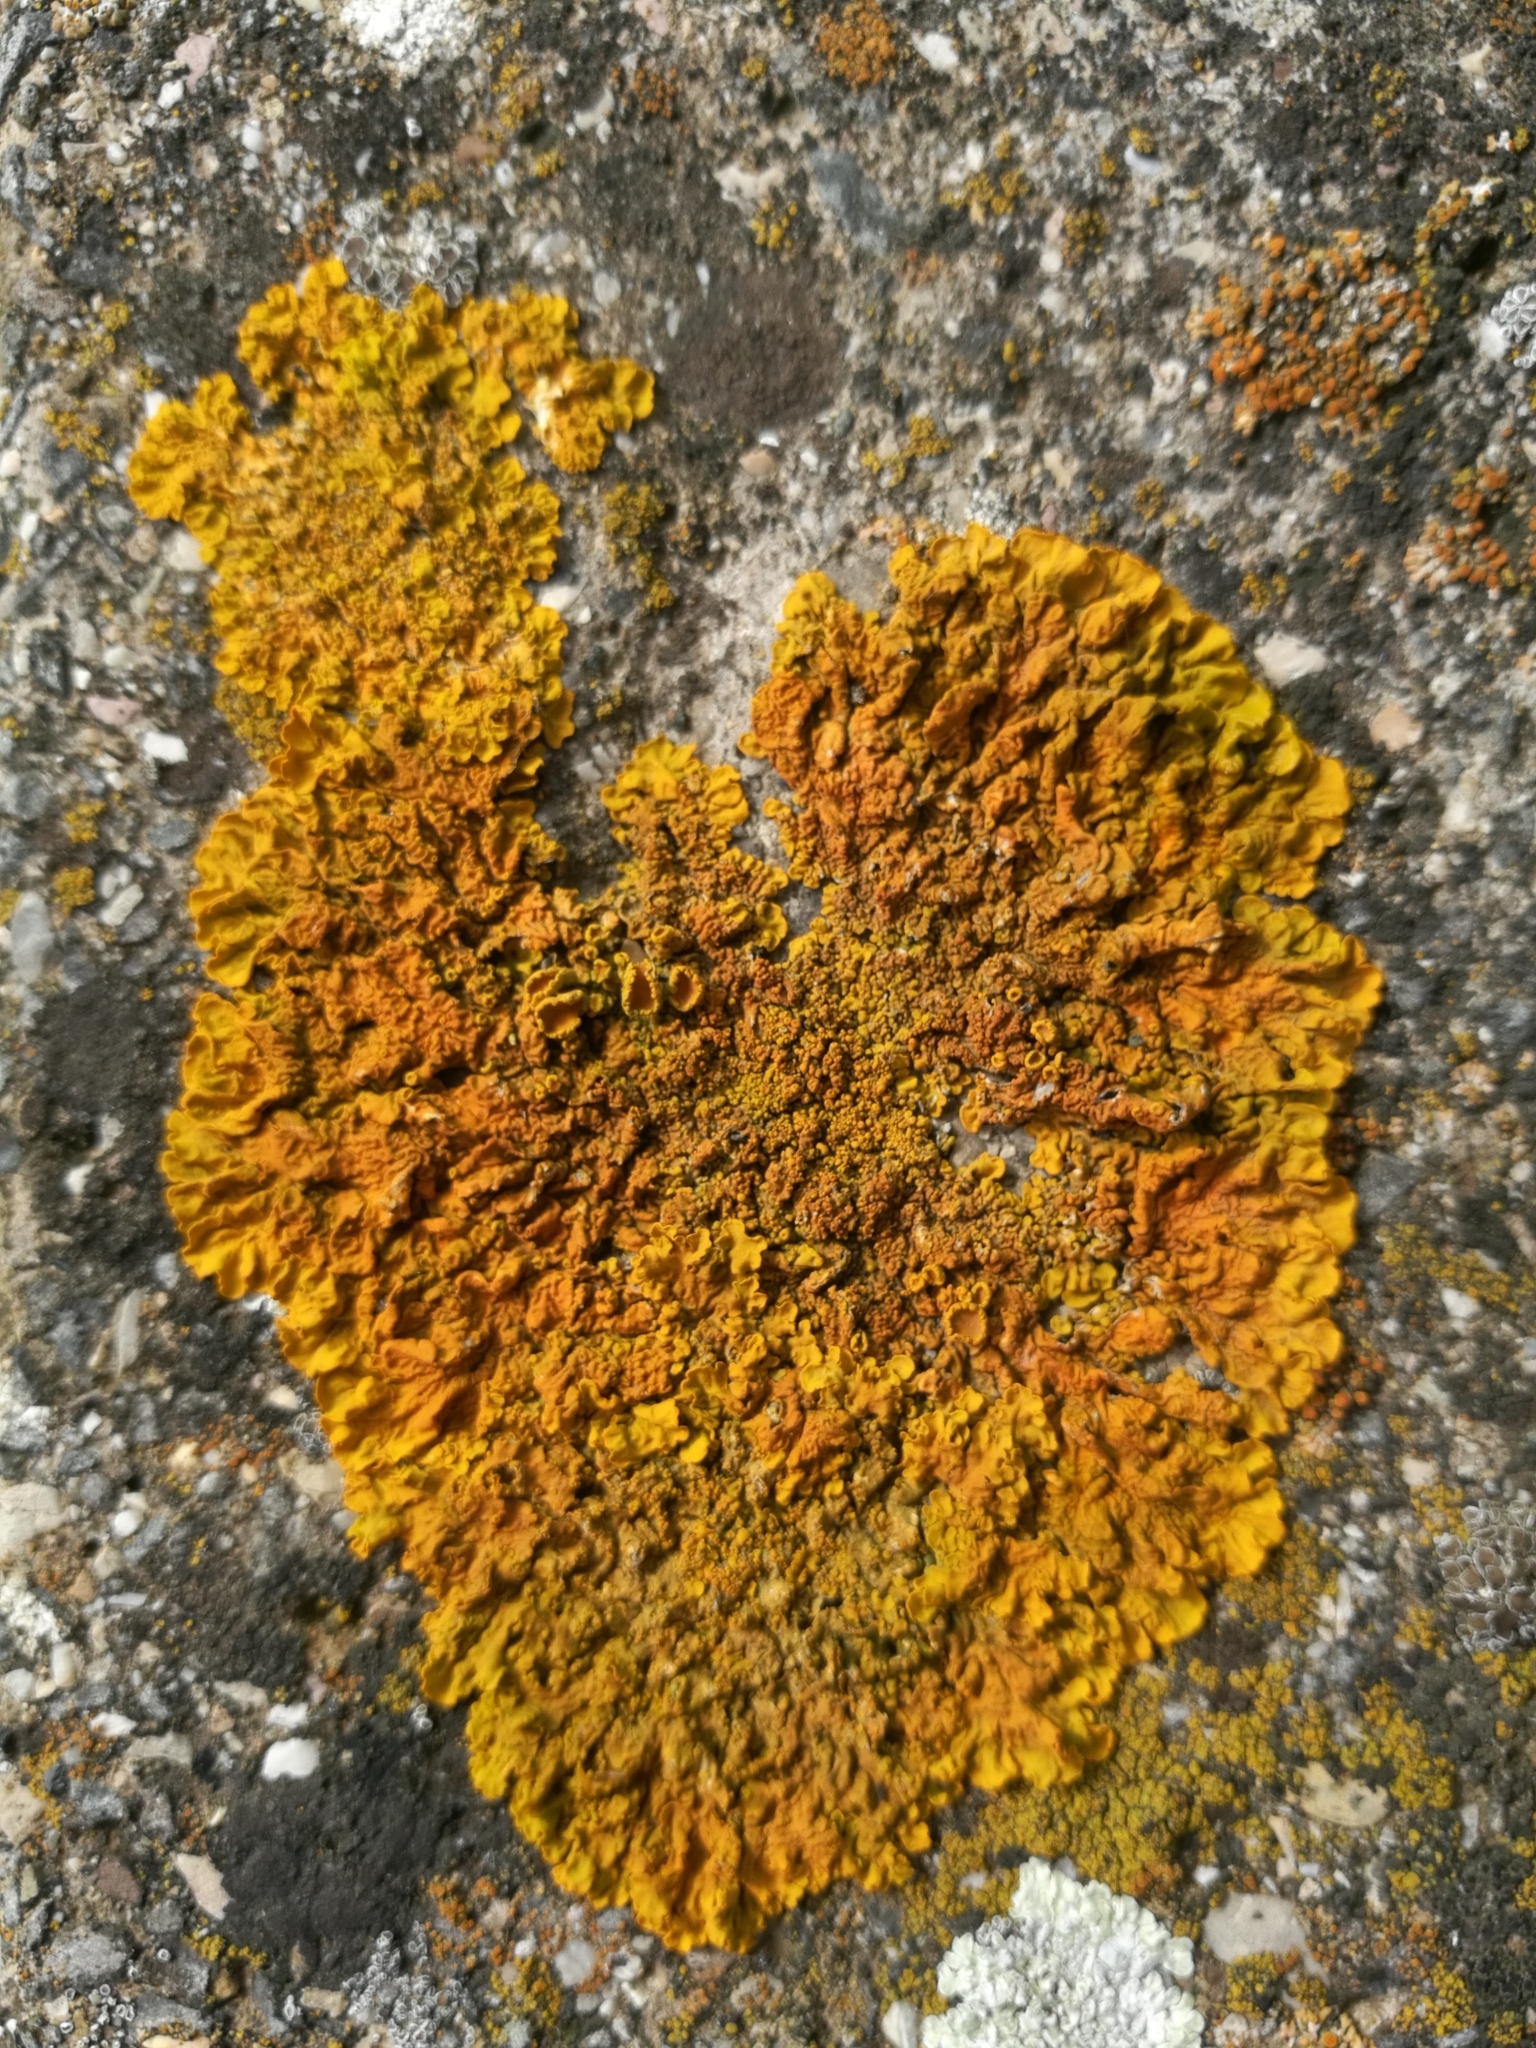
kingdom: Fungi
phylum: Ascomycota
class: Lecanoromycetes
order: Teloschistales
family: Teloschistaceae
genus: Xanthoria
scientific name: Xanthoria calcicola
